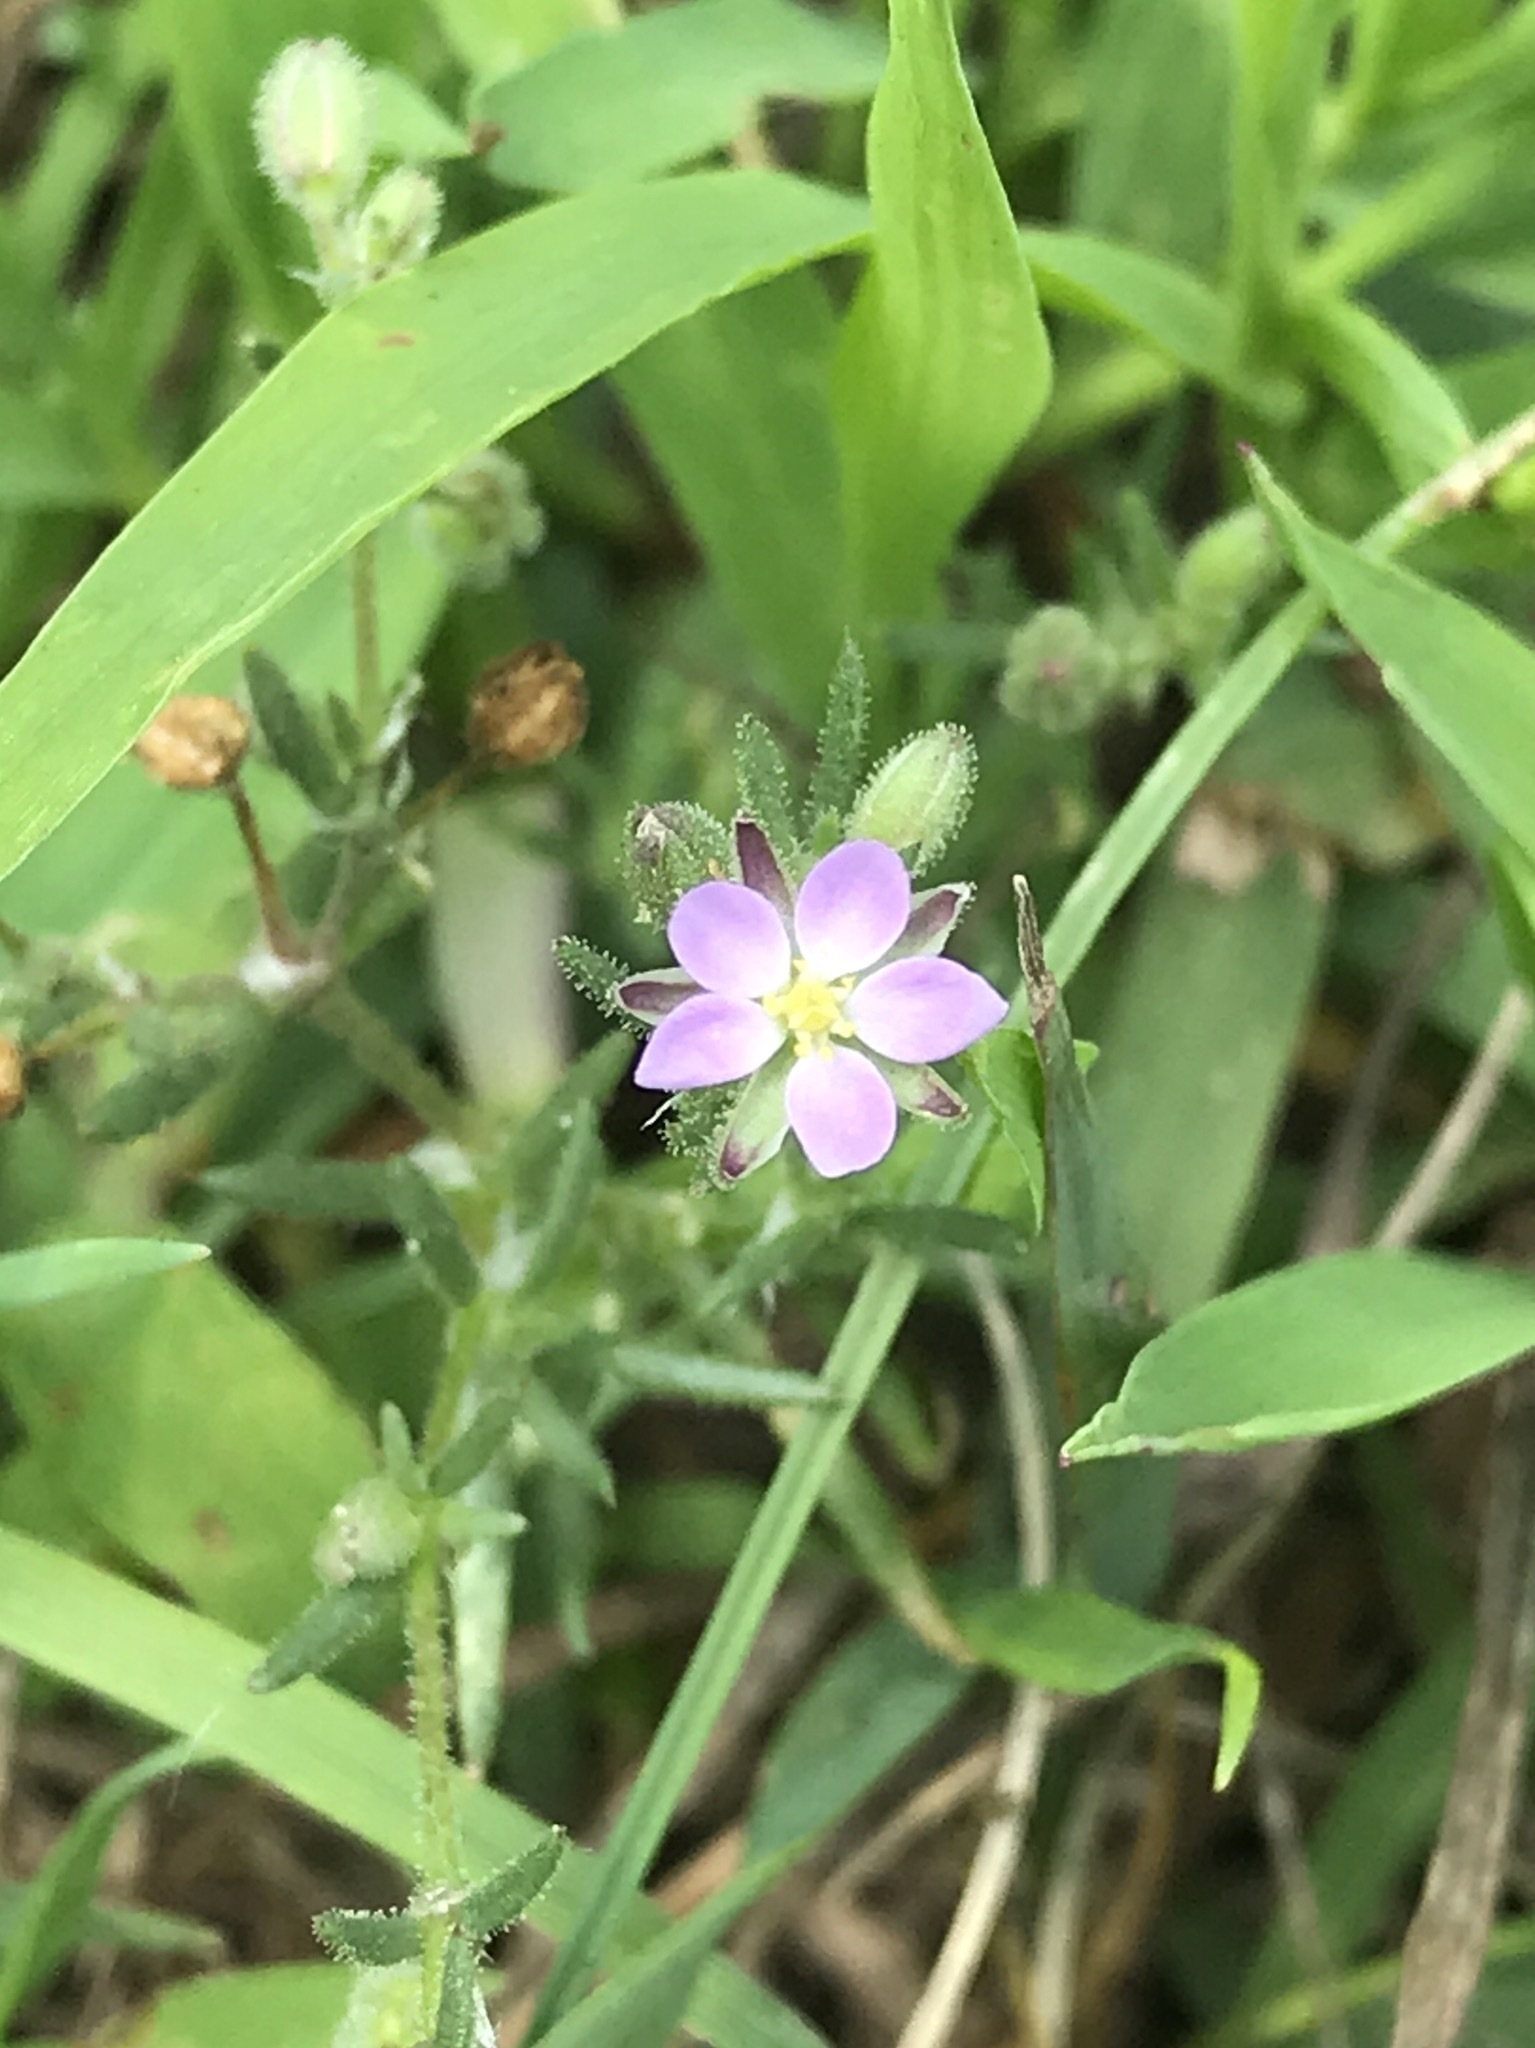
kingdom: Plantae
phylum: Tracheophyta
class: Magnoliopsida
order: Caryophyllales
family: Caryophyllaceae
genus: Spergularia
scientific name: Spergularia rubra
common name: Red sand-spurrey
